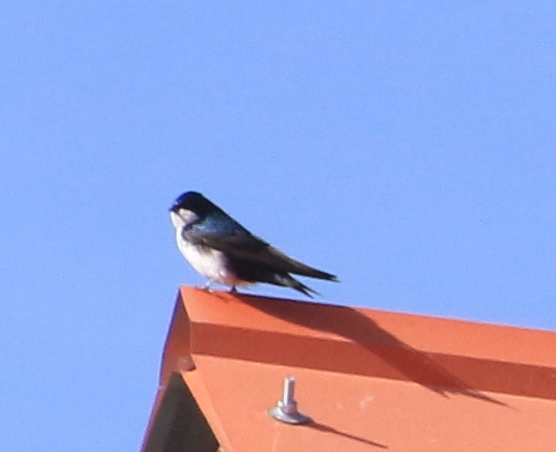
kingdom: Animalia
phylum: Chordata
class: Aves
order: Passeriformes
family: Hirundinidae
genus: Notiochelidon
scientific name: Notiochelidon cyanoleuca
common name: Blue-and-white swallow
